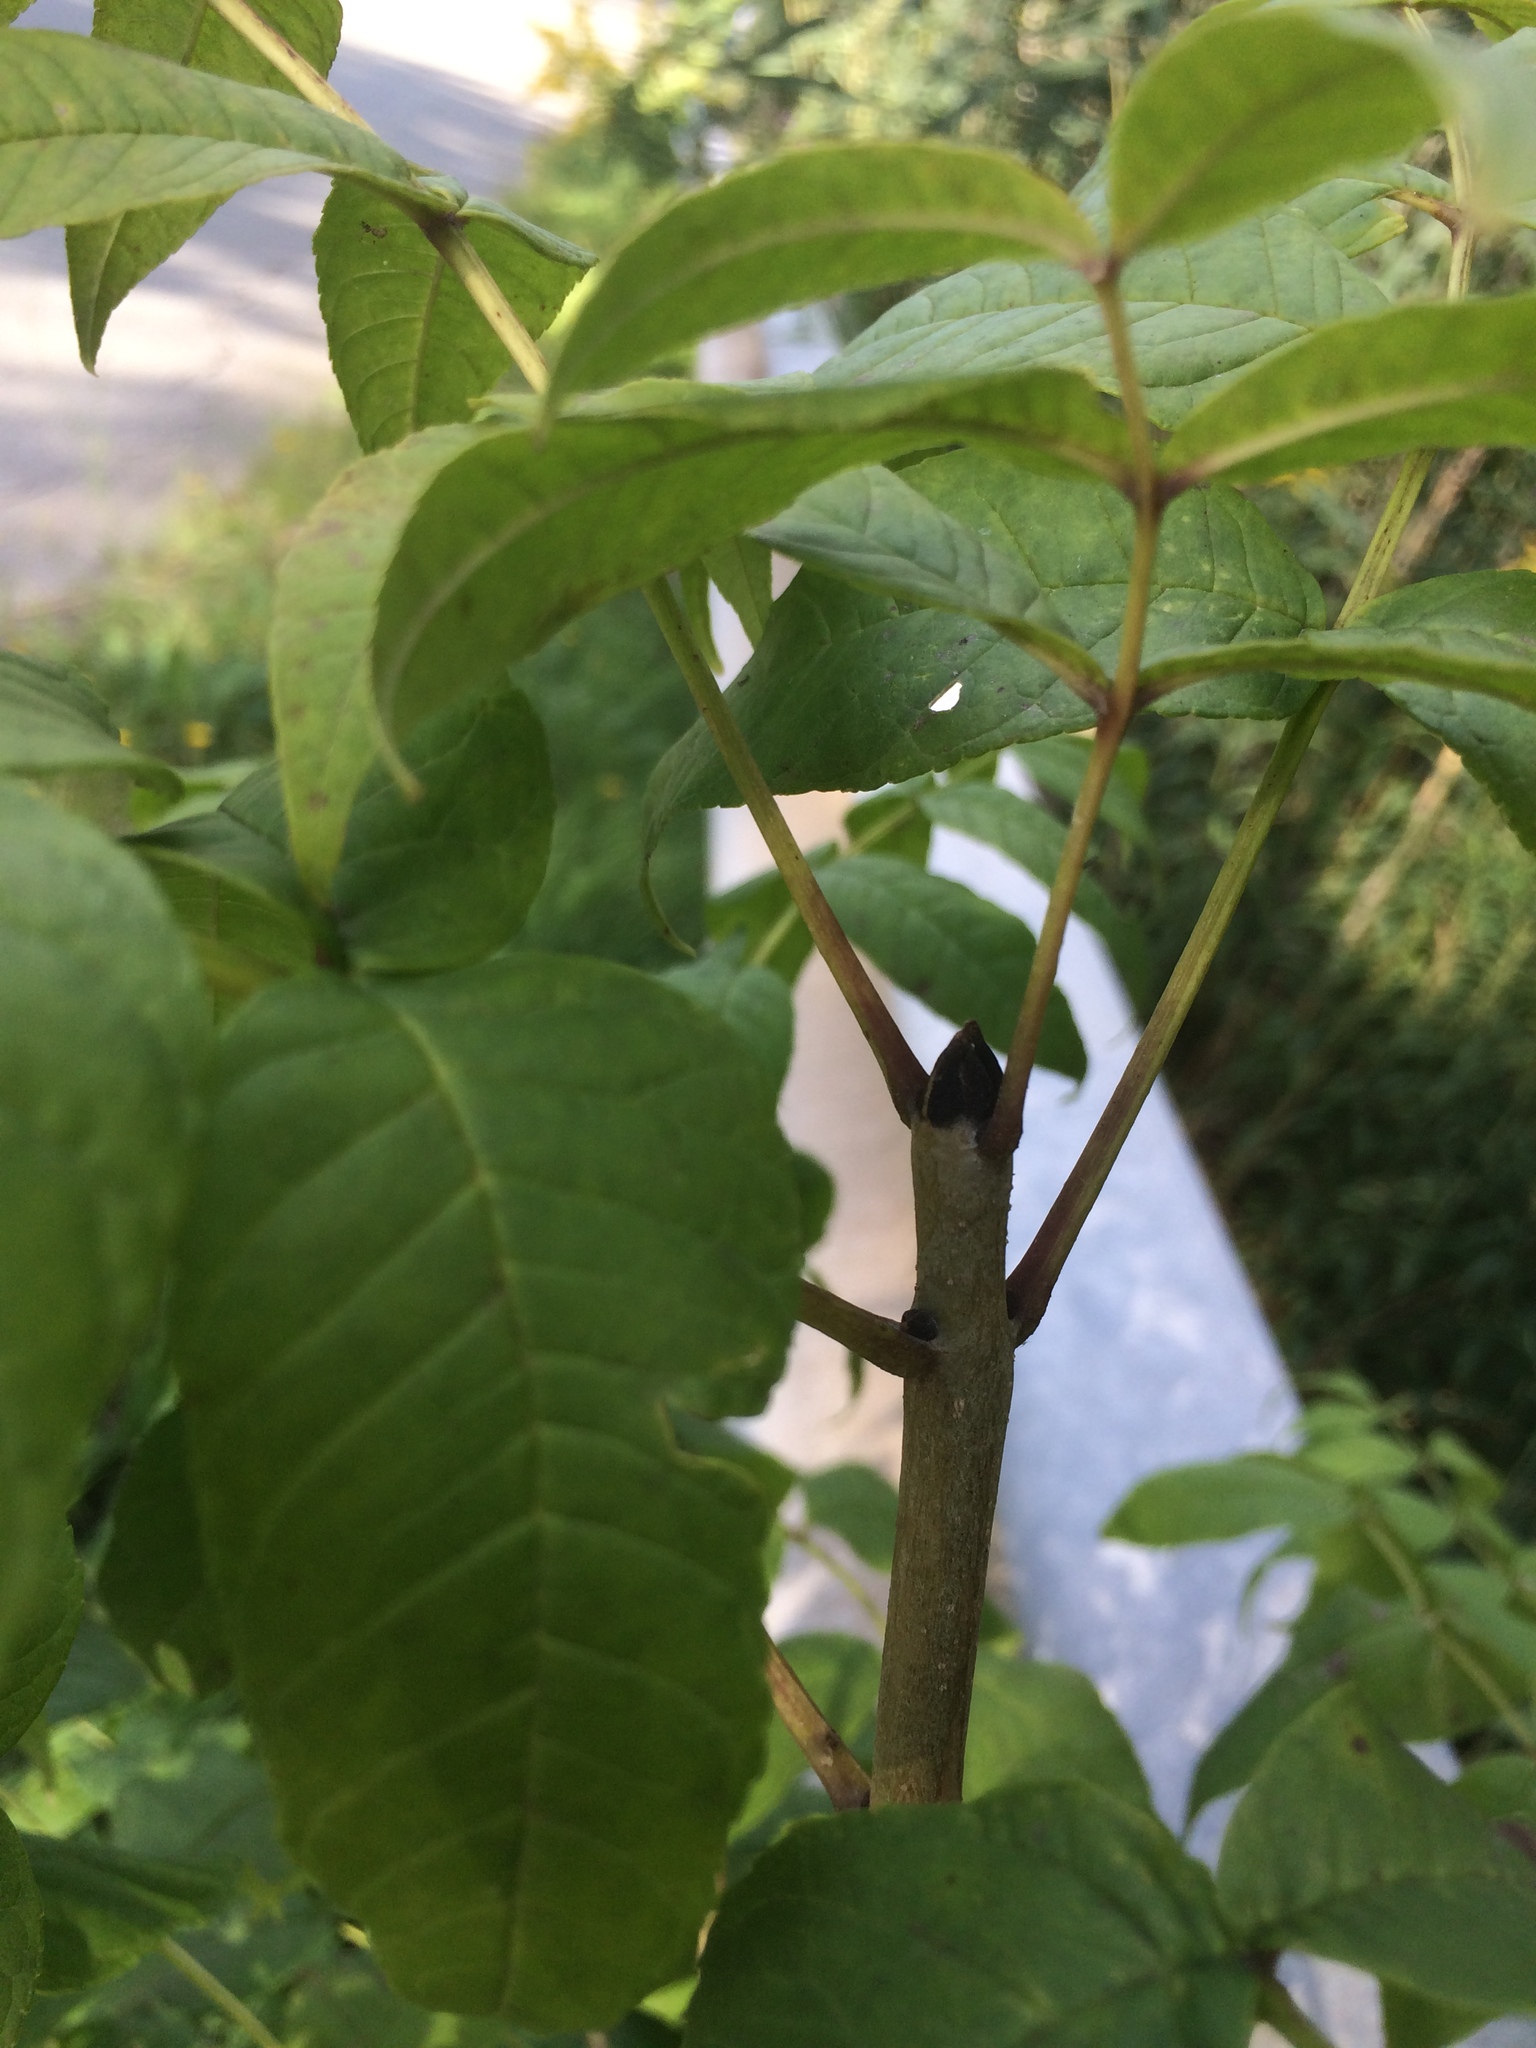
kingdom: Plantae
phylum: Tracheophyta
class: Magnoliopsida
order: Lamiales
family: Oleaceae
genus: Fraxinus
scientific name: Fraxinus nigra
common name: Black ash
